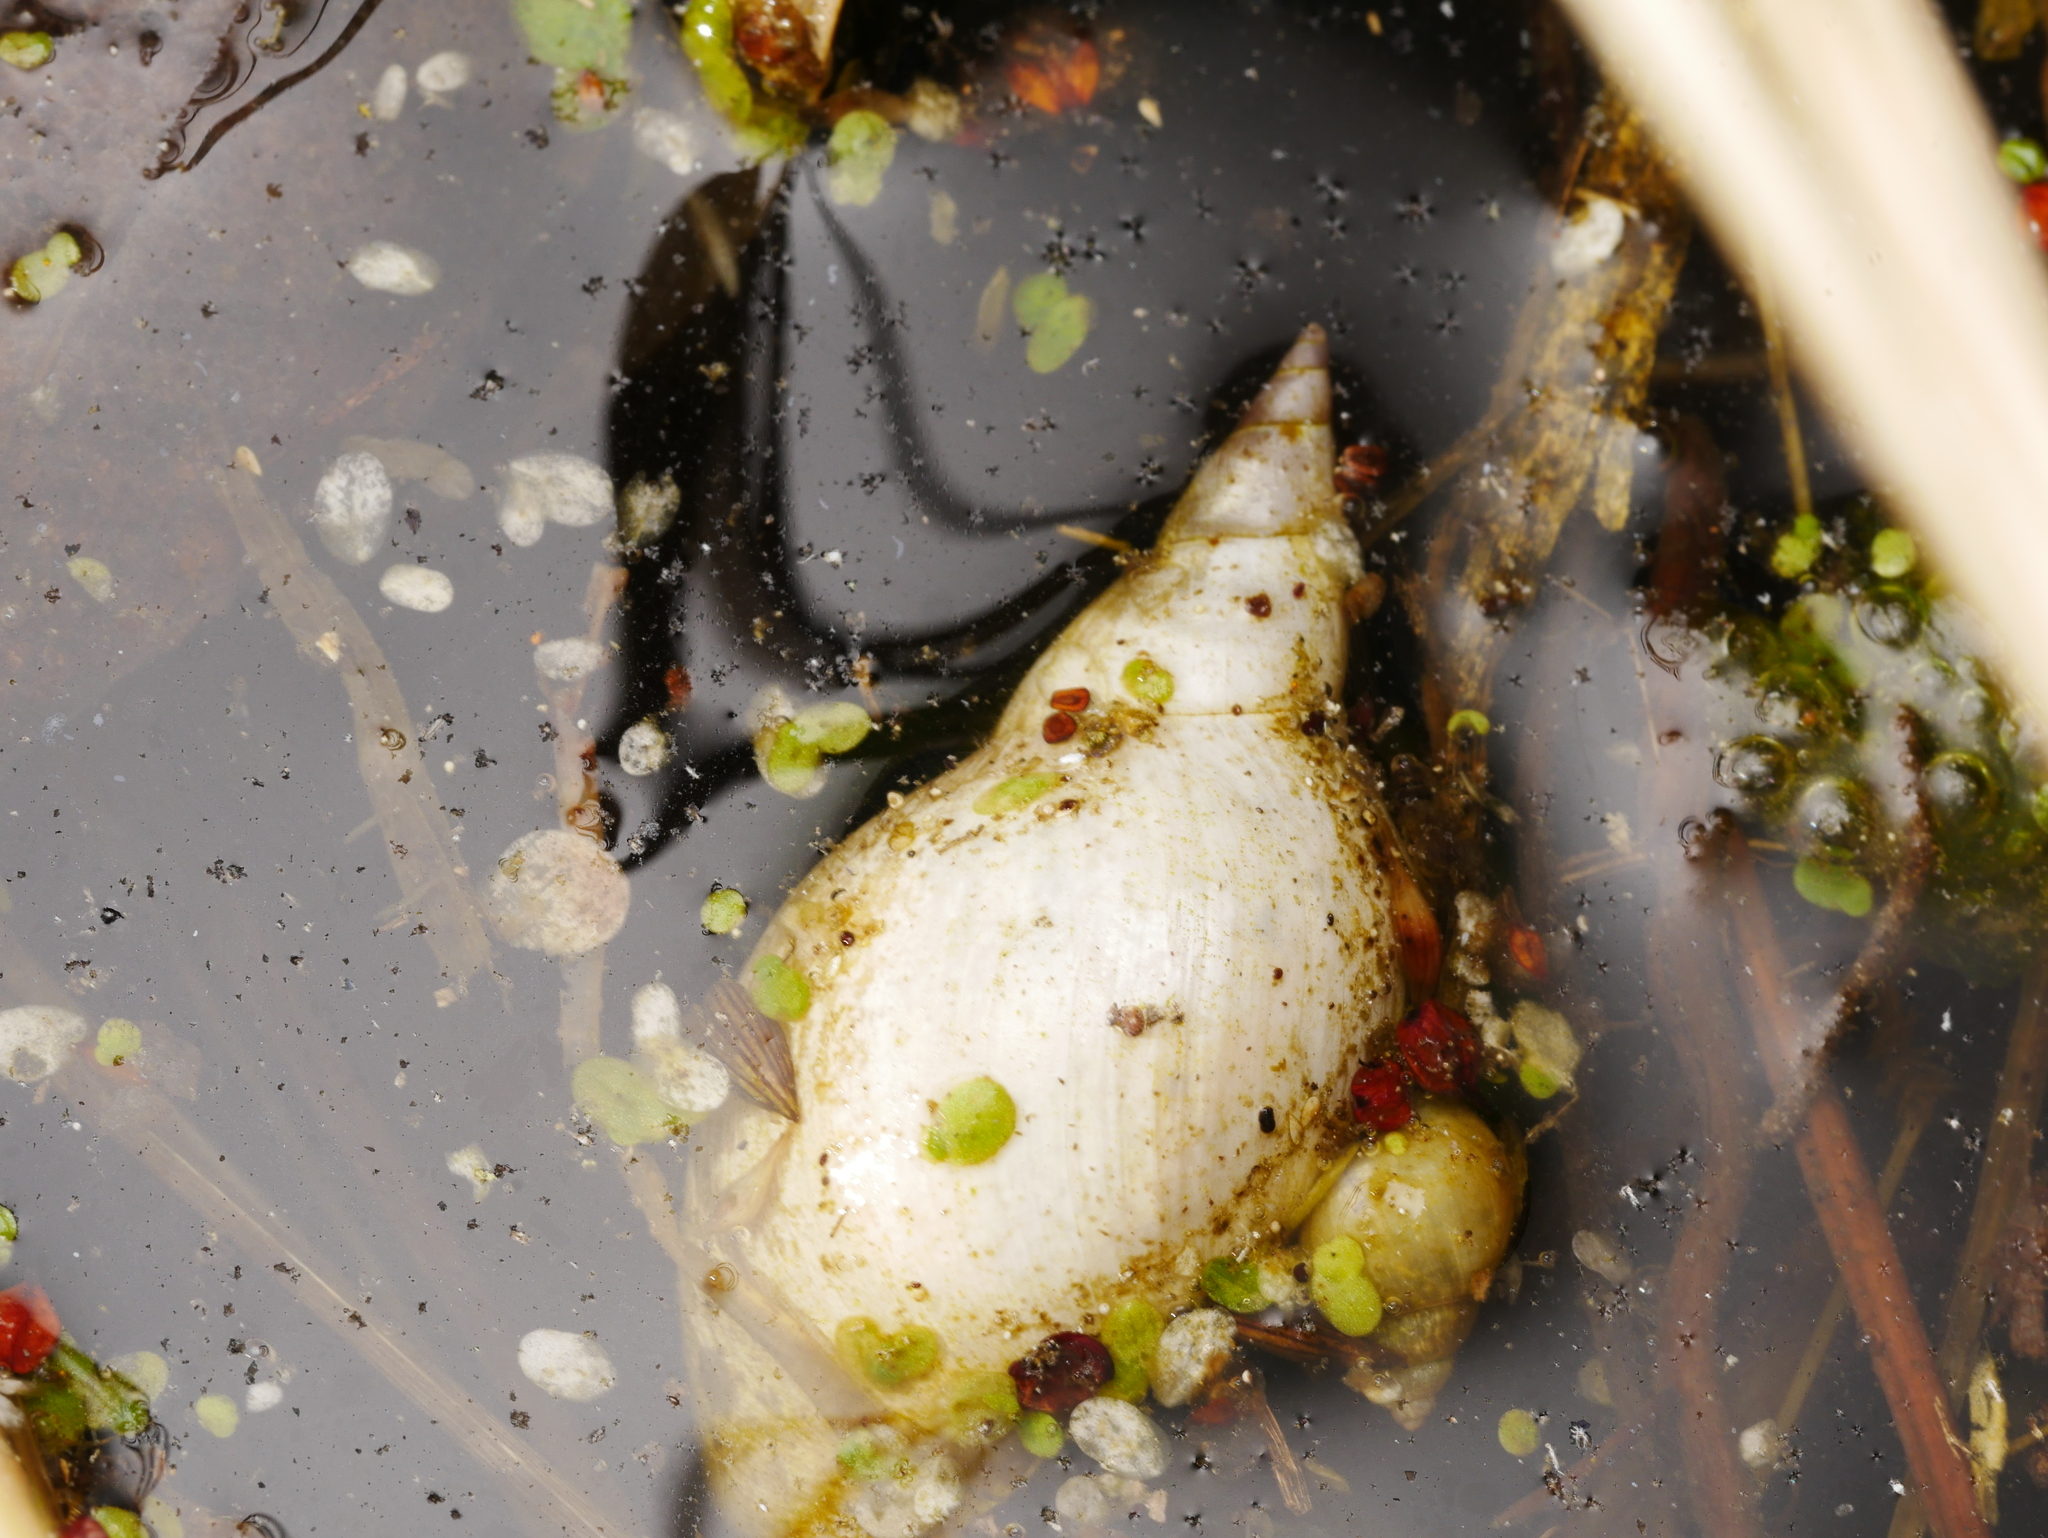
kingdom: Animalia
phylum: Mollusca
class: Gastropoda
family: Lymnaeidae
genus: Lymnaea
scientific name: Lymnaea stagnalis
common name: Great pond snail
